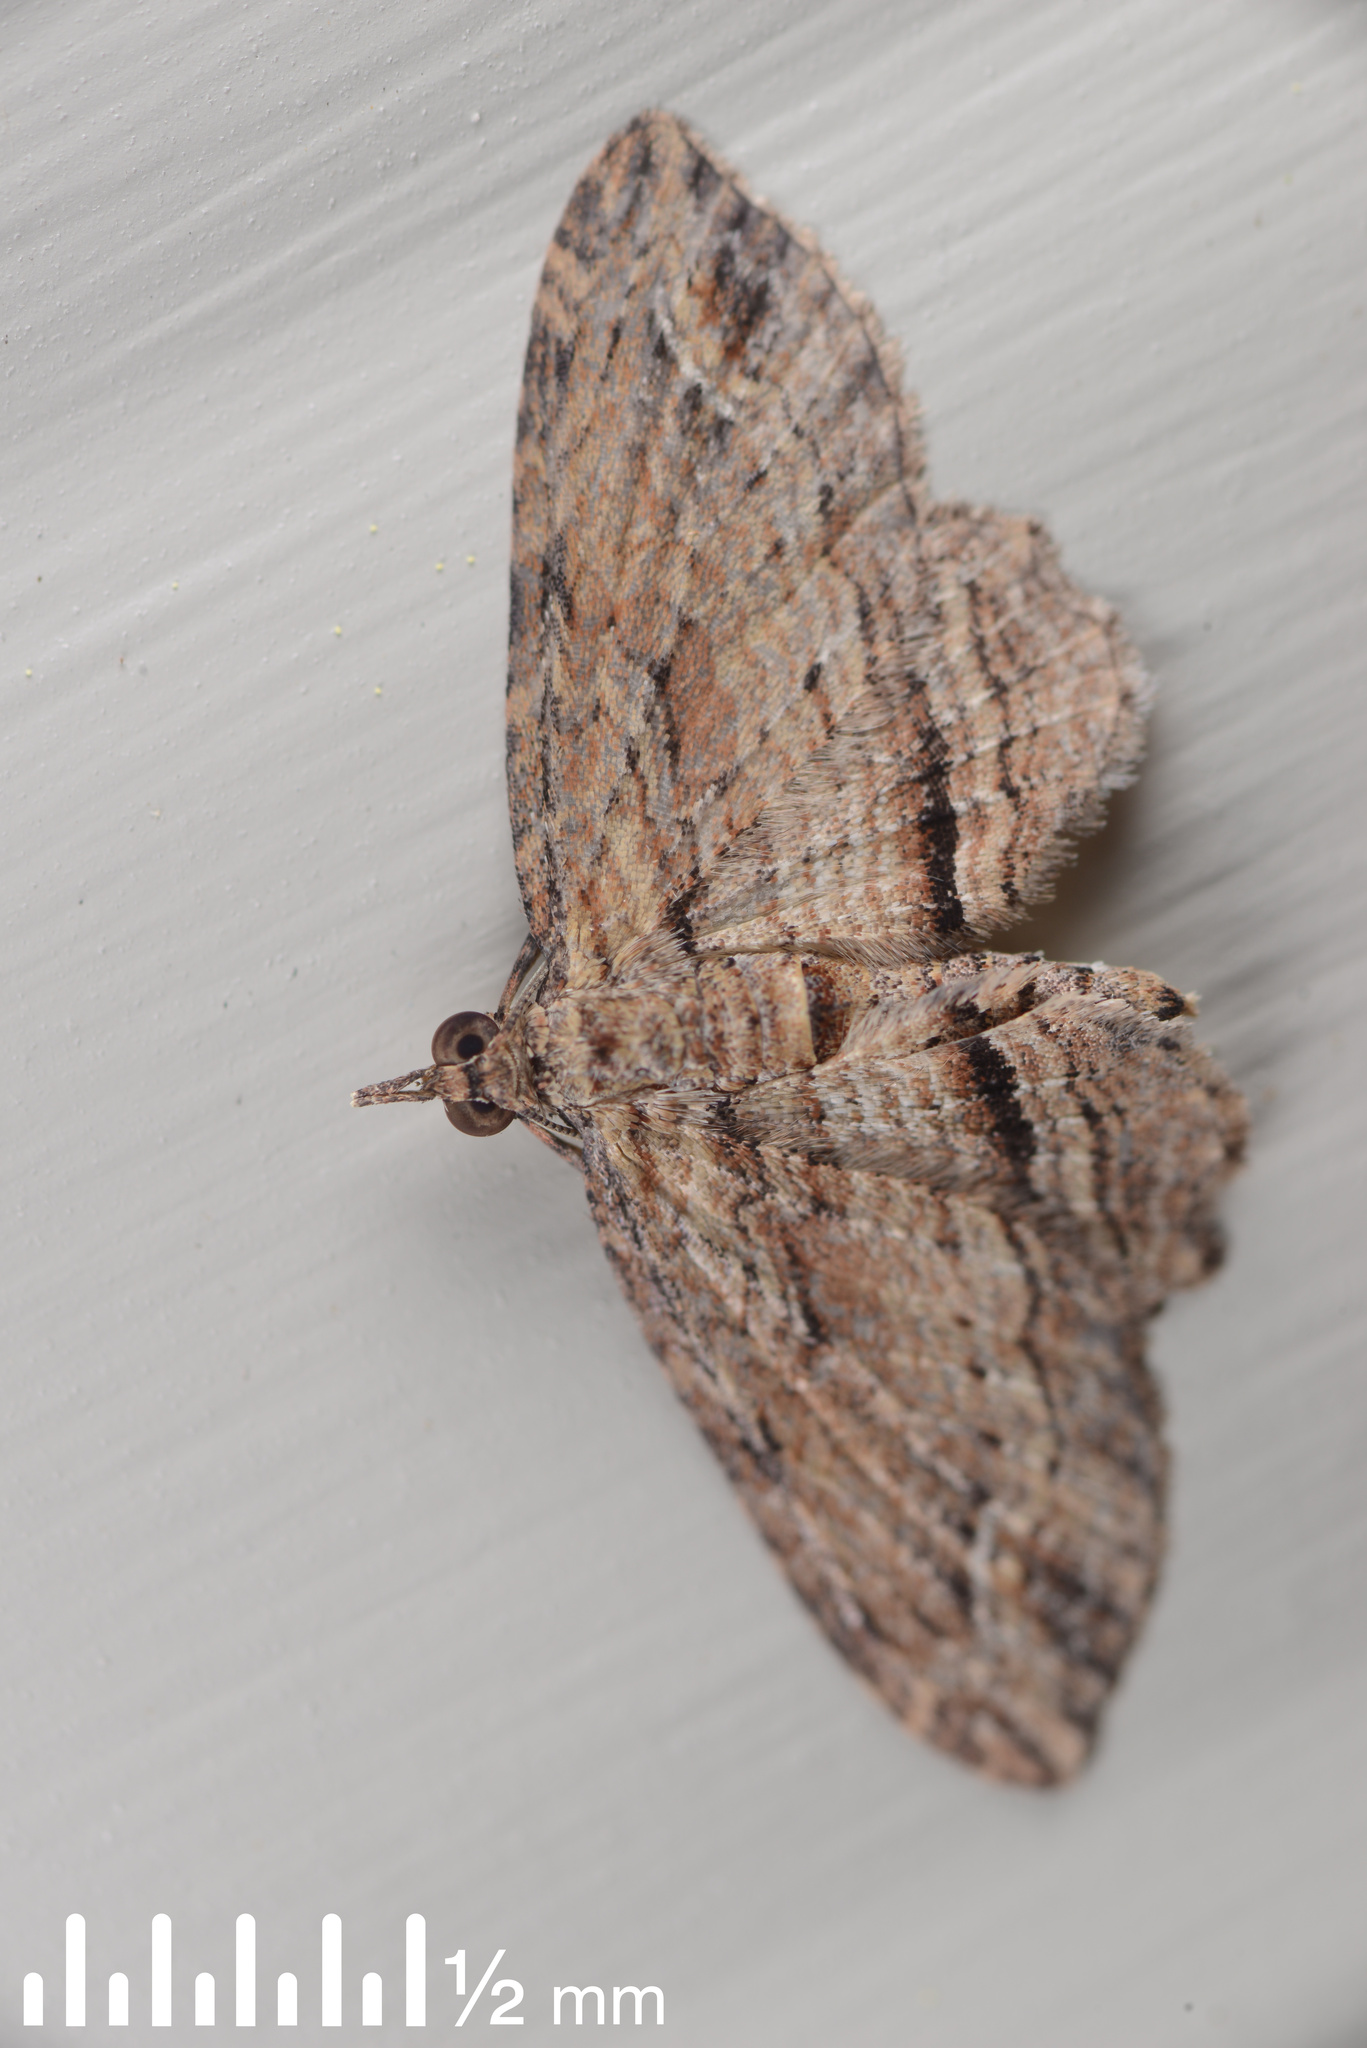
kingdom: Animalia
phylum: Arthropoda
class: Insecta
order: Lepidoptera
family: Geometridae
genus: Chloroclystis
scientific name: Chloroclystis filata
